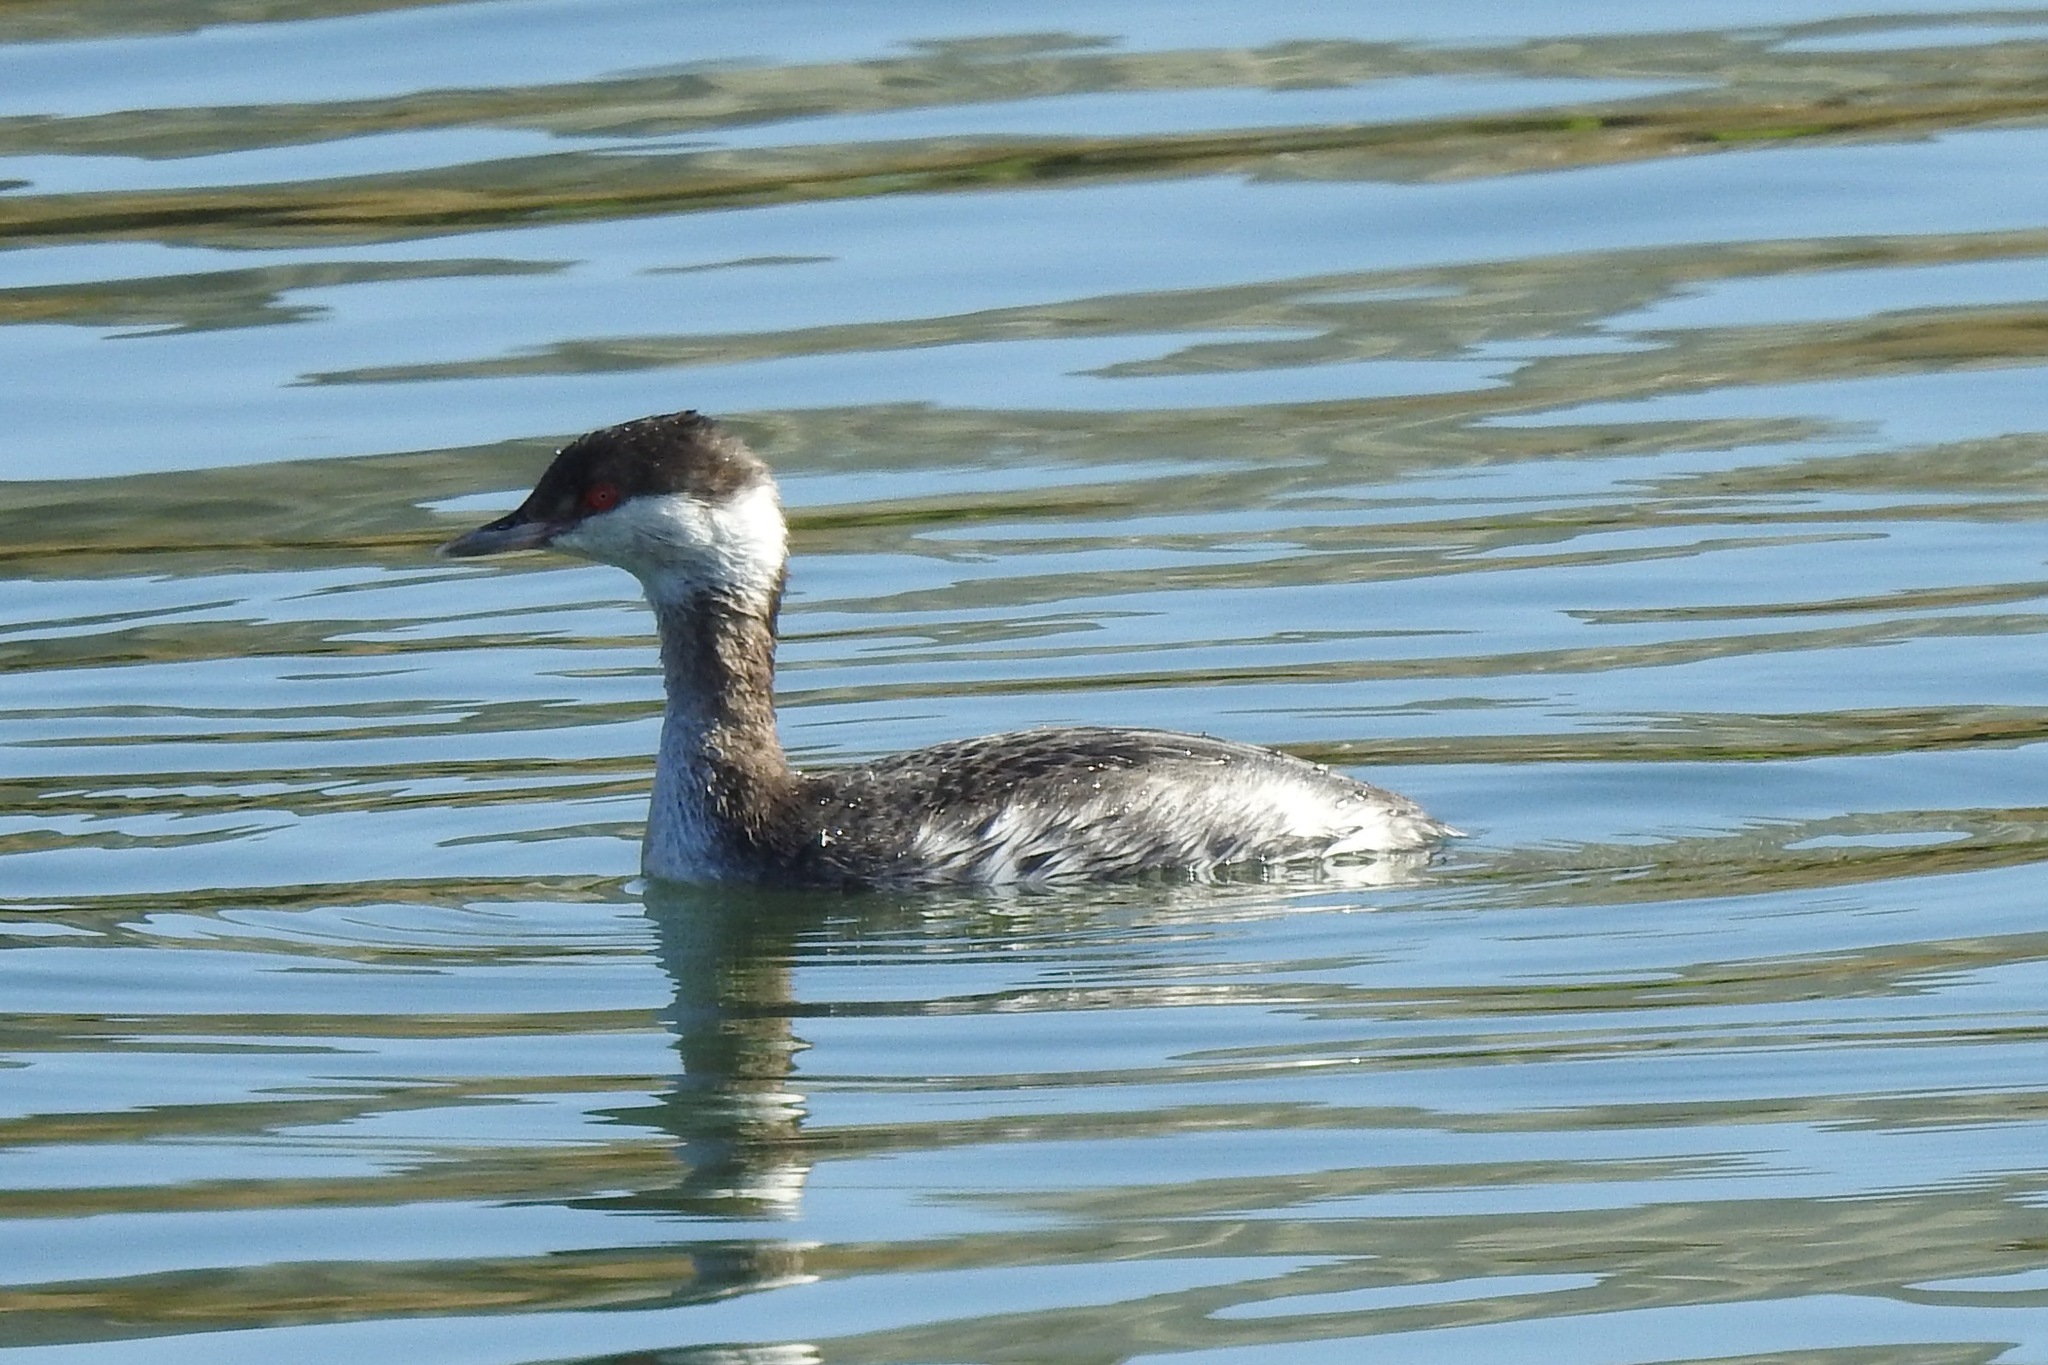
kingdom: Animalia
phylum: Chordata
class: Aves
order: Podicipediformes
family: Podicipedidae
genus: Podiceps
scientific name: Podiceps auritus
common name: Horned grebe
